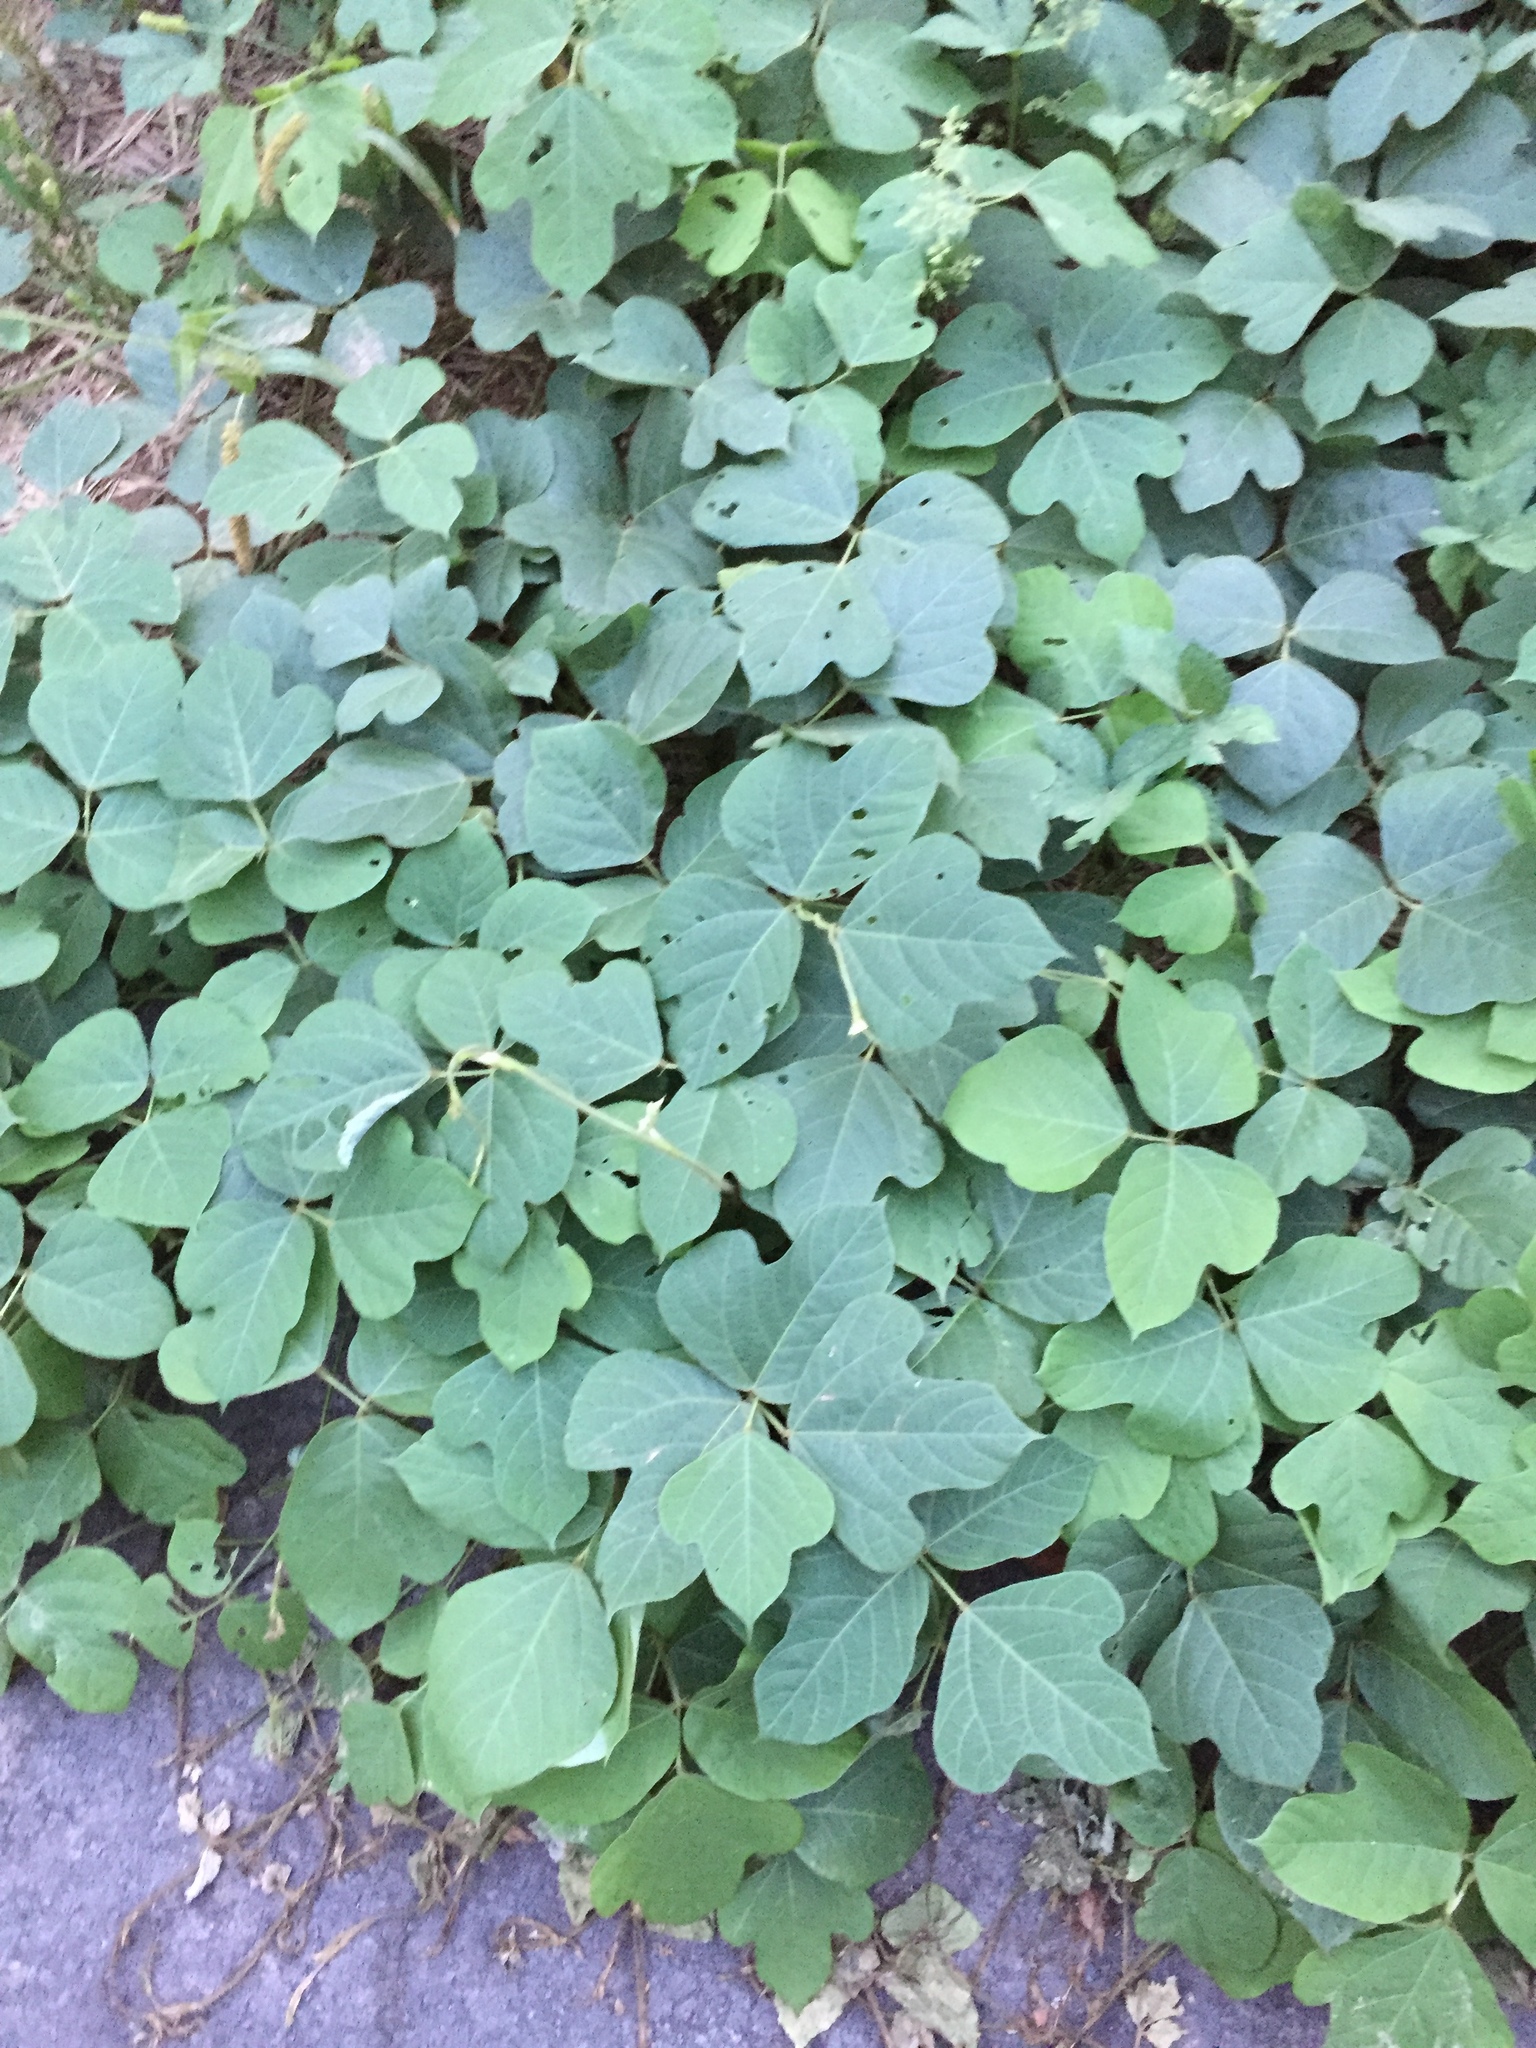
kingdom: Plantae
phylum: Tracheophyta
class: Magnoliopsida
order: Fabales
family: Fabaceae
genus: Pueraria
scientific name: Pueraria montana
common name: Kudzu
